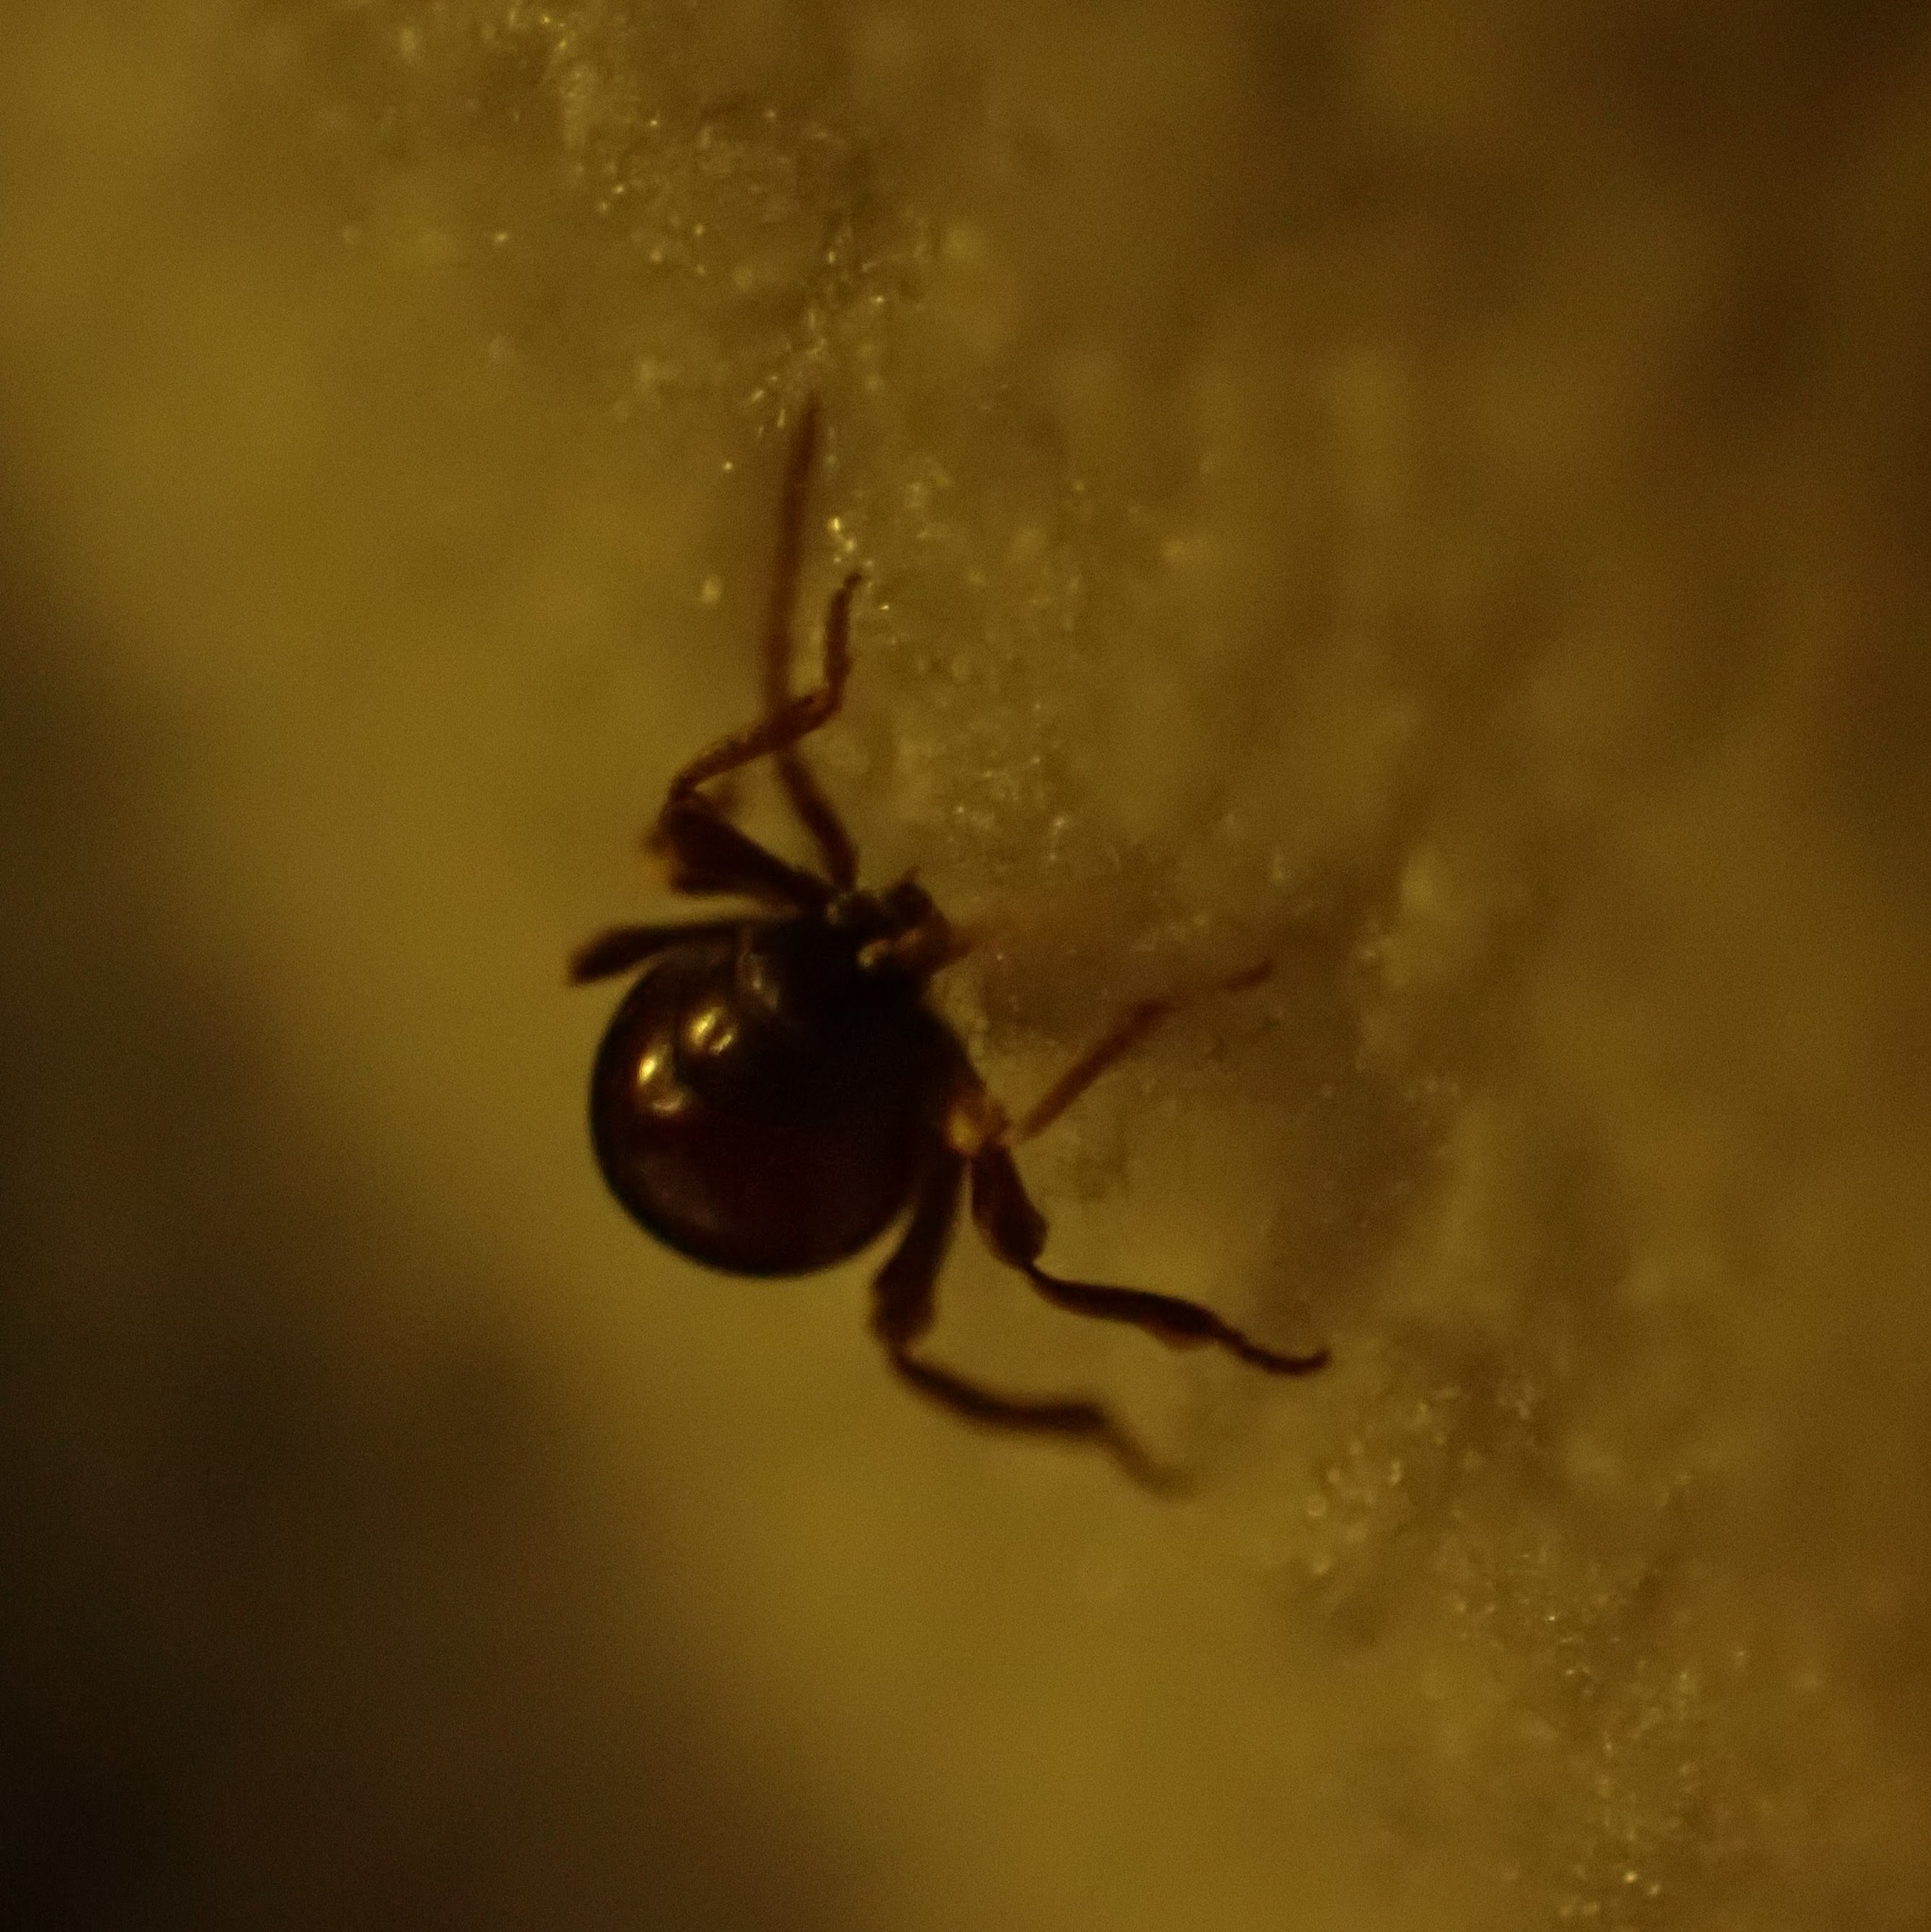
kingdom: Animalia
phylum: Arthropoda
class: Insecta
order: Coleoptera
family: Ptinidae
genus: Gibbium
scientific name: Gibbium aequinoctiale
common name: Smooth spider beetle
